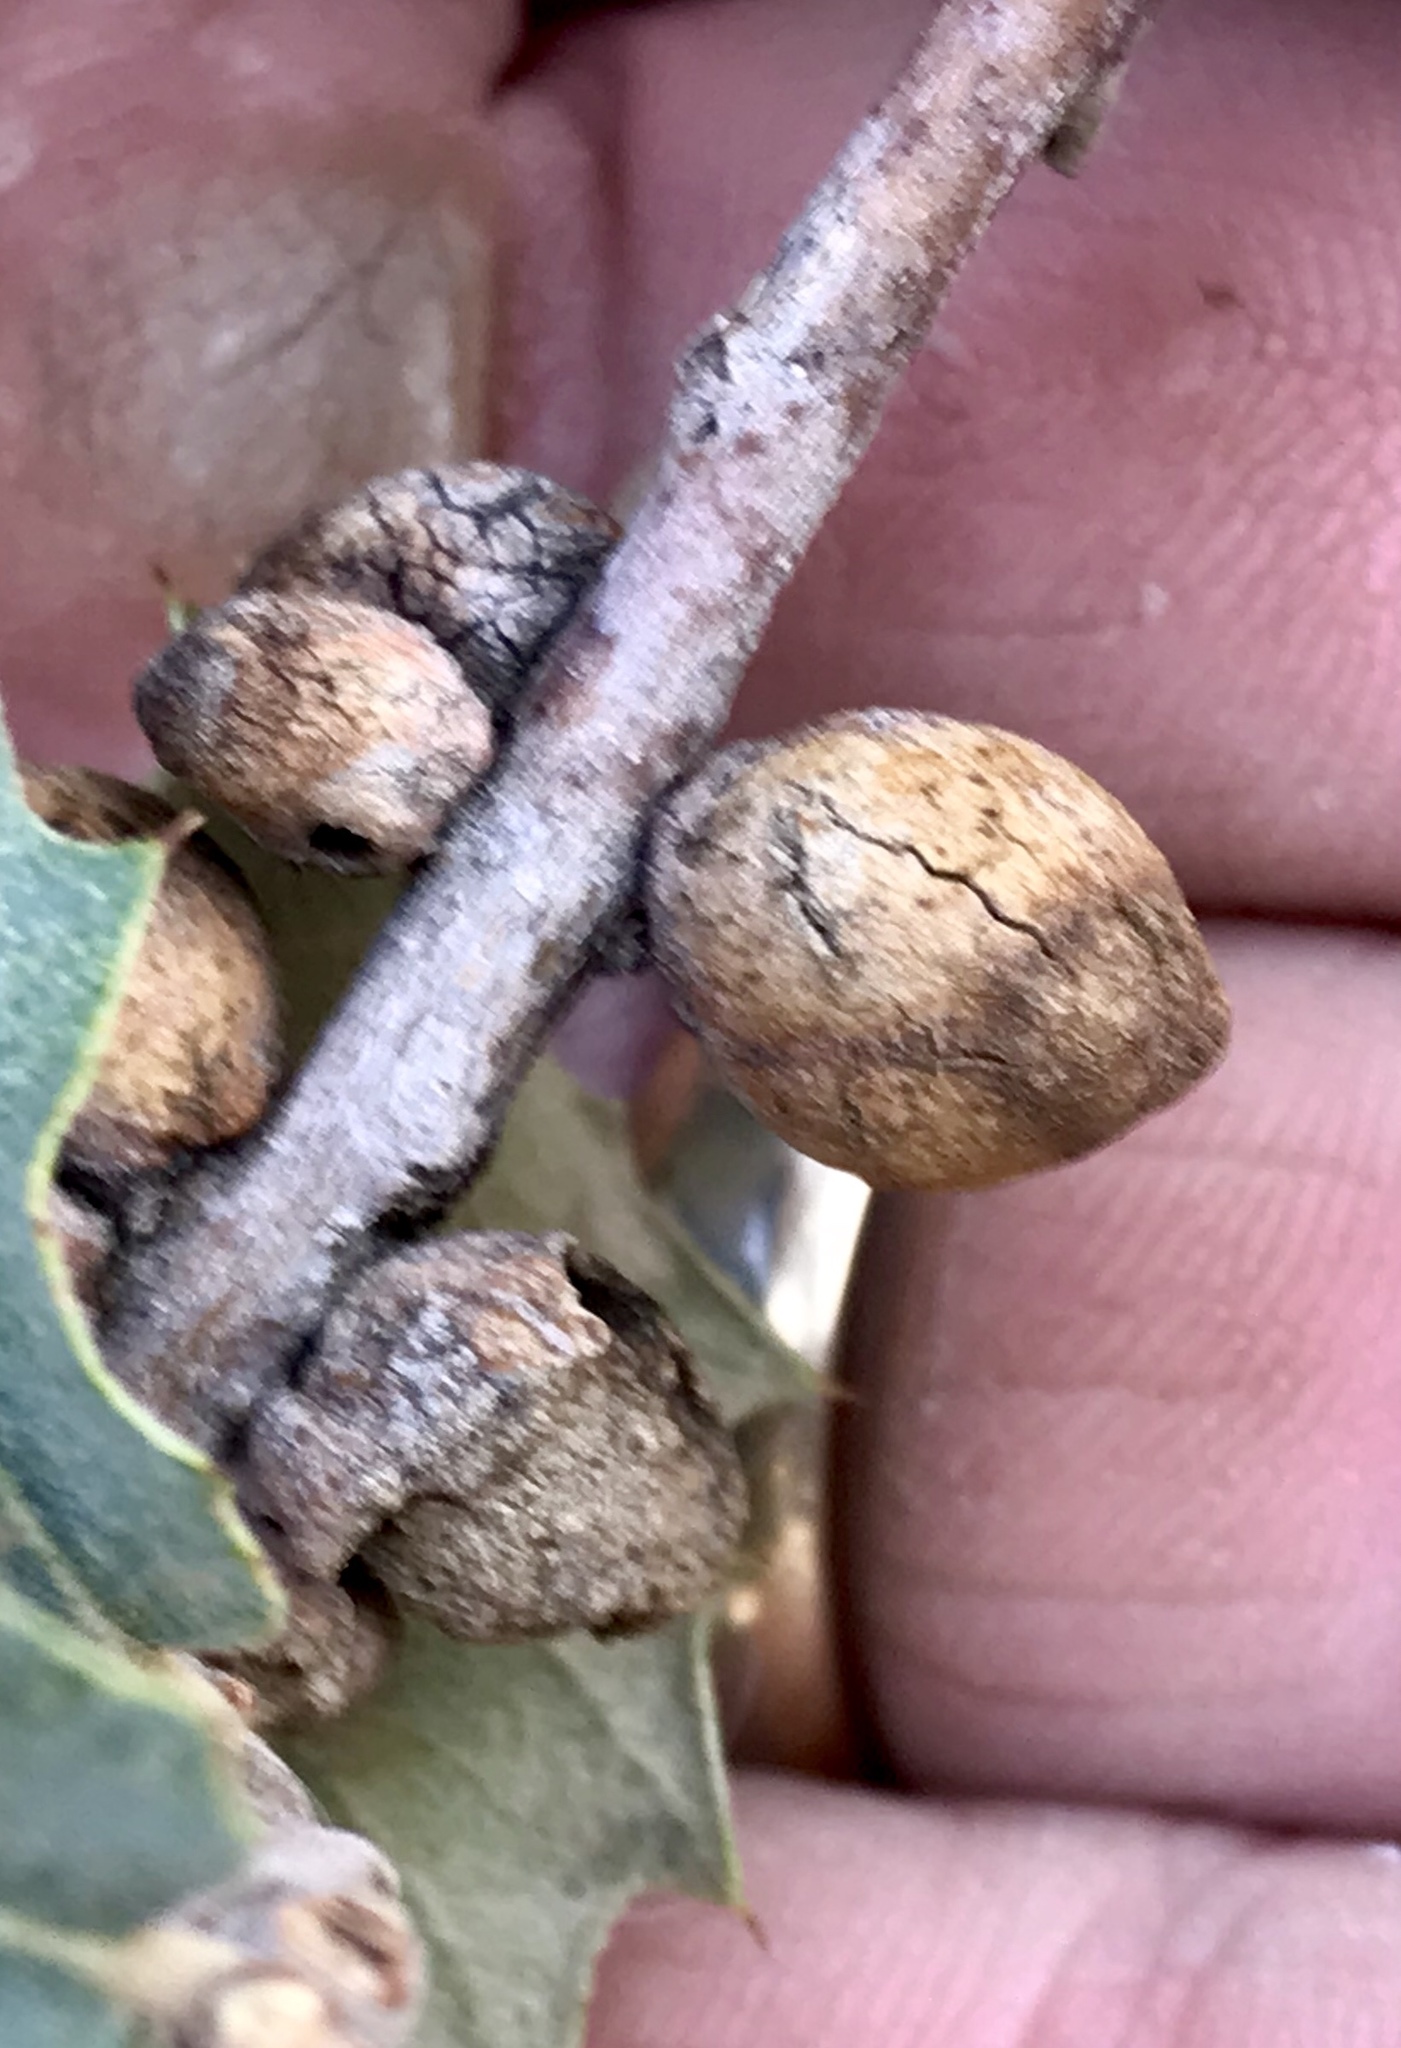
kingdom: Animalia
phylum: Arthropoda
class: Insecta
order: Hymenoptera
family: Cynipidae
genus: Disholcaspis
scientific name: Disholcaspis
